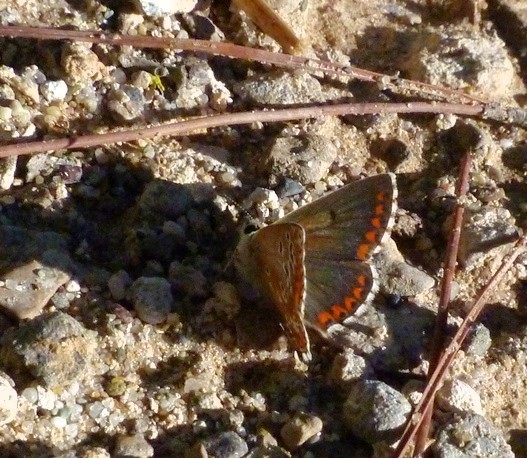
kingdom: Animalia
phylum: Arthropoda
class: Insecta
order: Lepidoptera
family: Lycaenidae
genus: Aricia
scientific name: Aricia cramera
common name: Eschscholtz´s brown  argus
